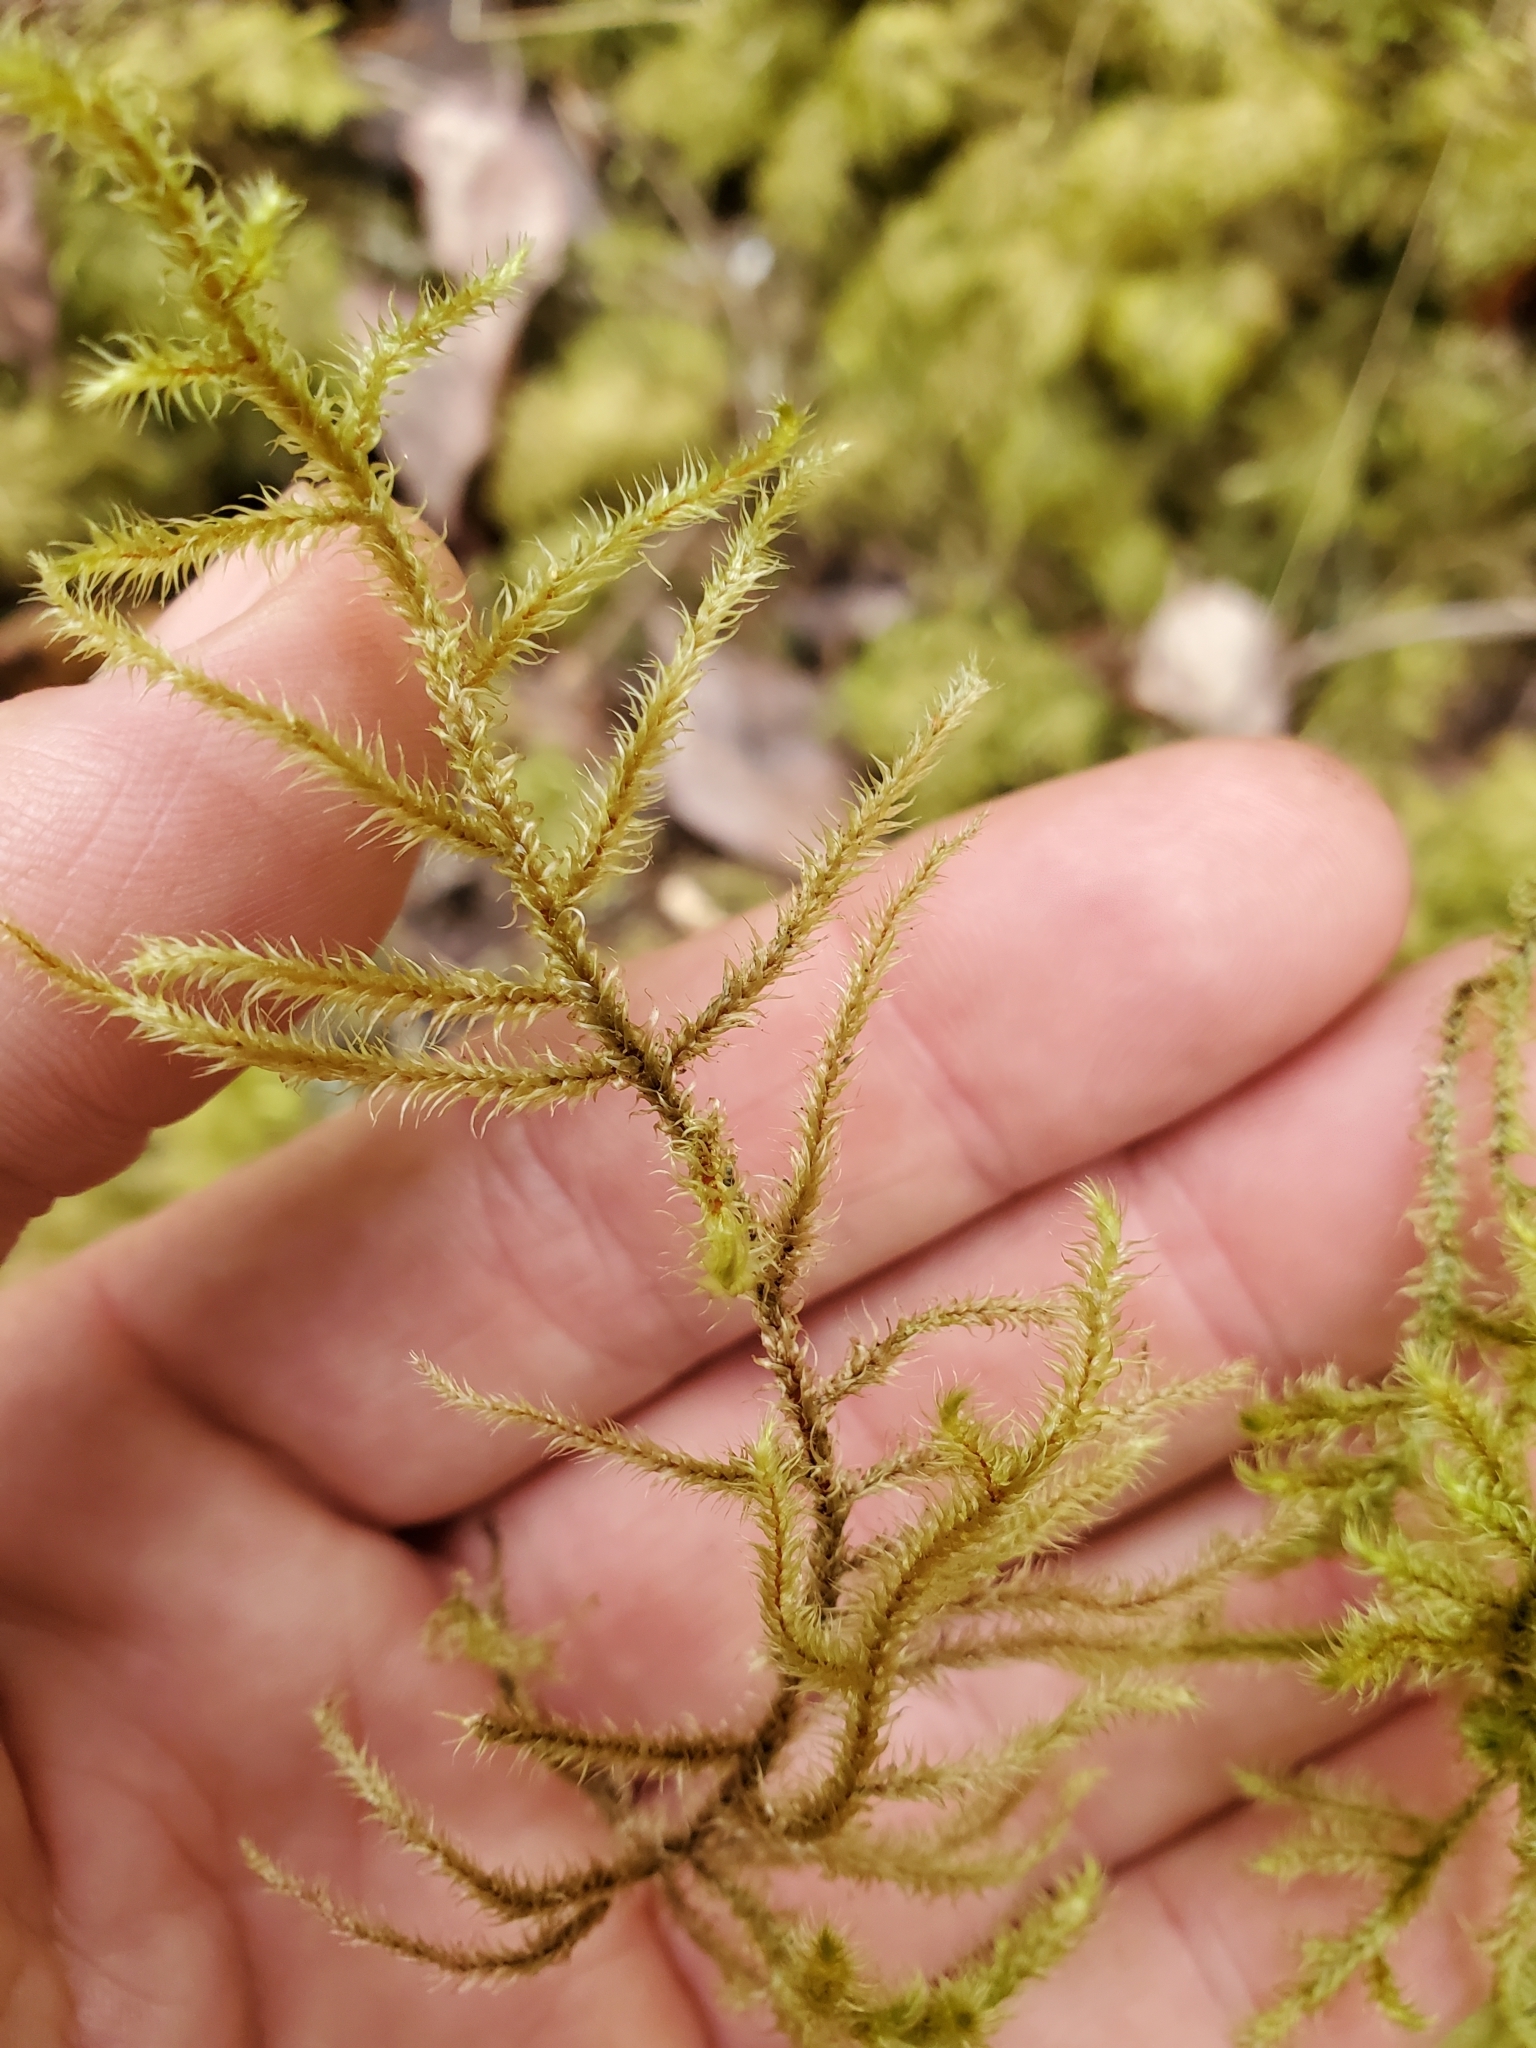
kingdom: Plantae
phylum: Bryophyta
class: Bryopsida
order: Hypnales
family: Hylocomiaceae
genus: Rhytidiadelphus
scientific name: Rhytidiadelphus loreus
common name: Lanky moss
